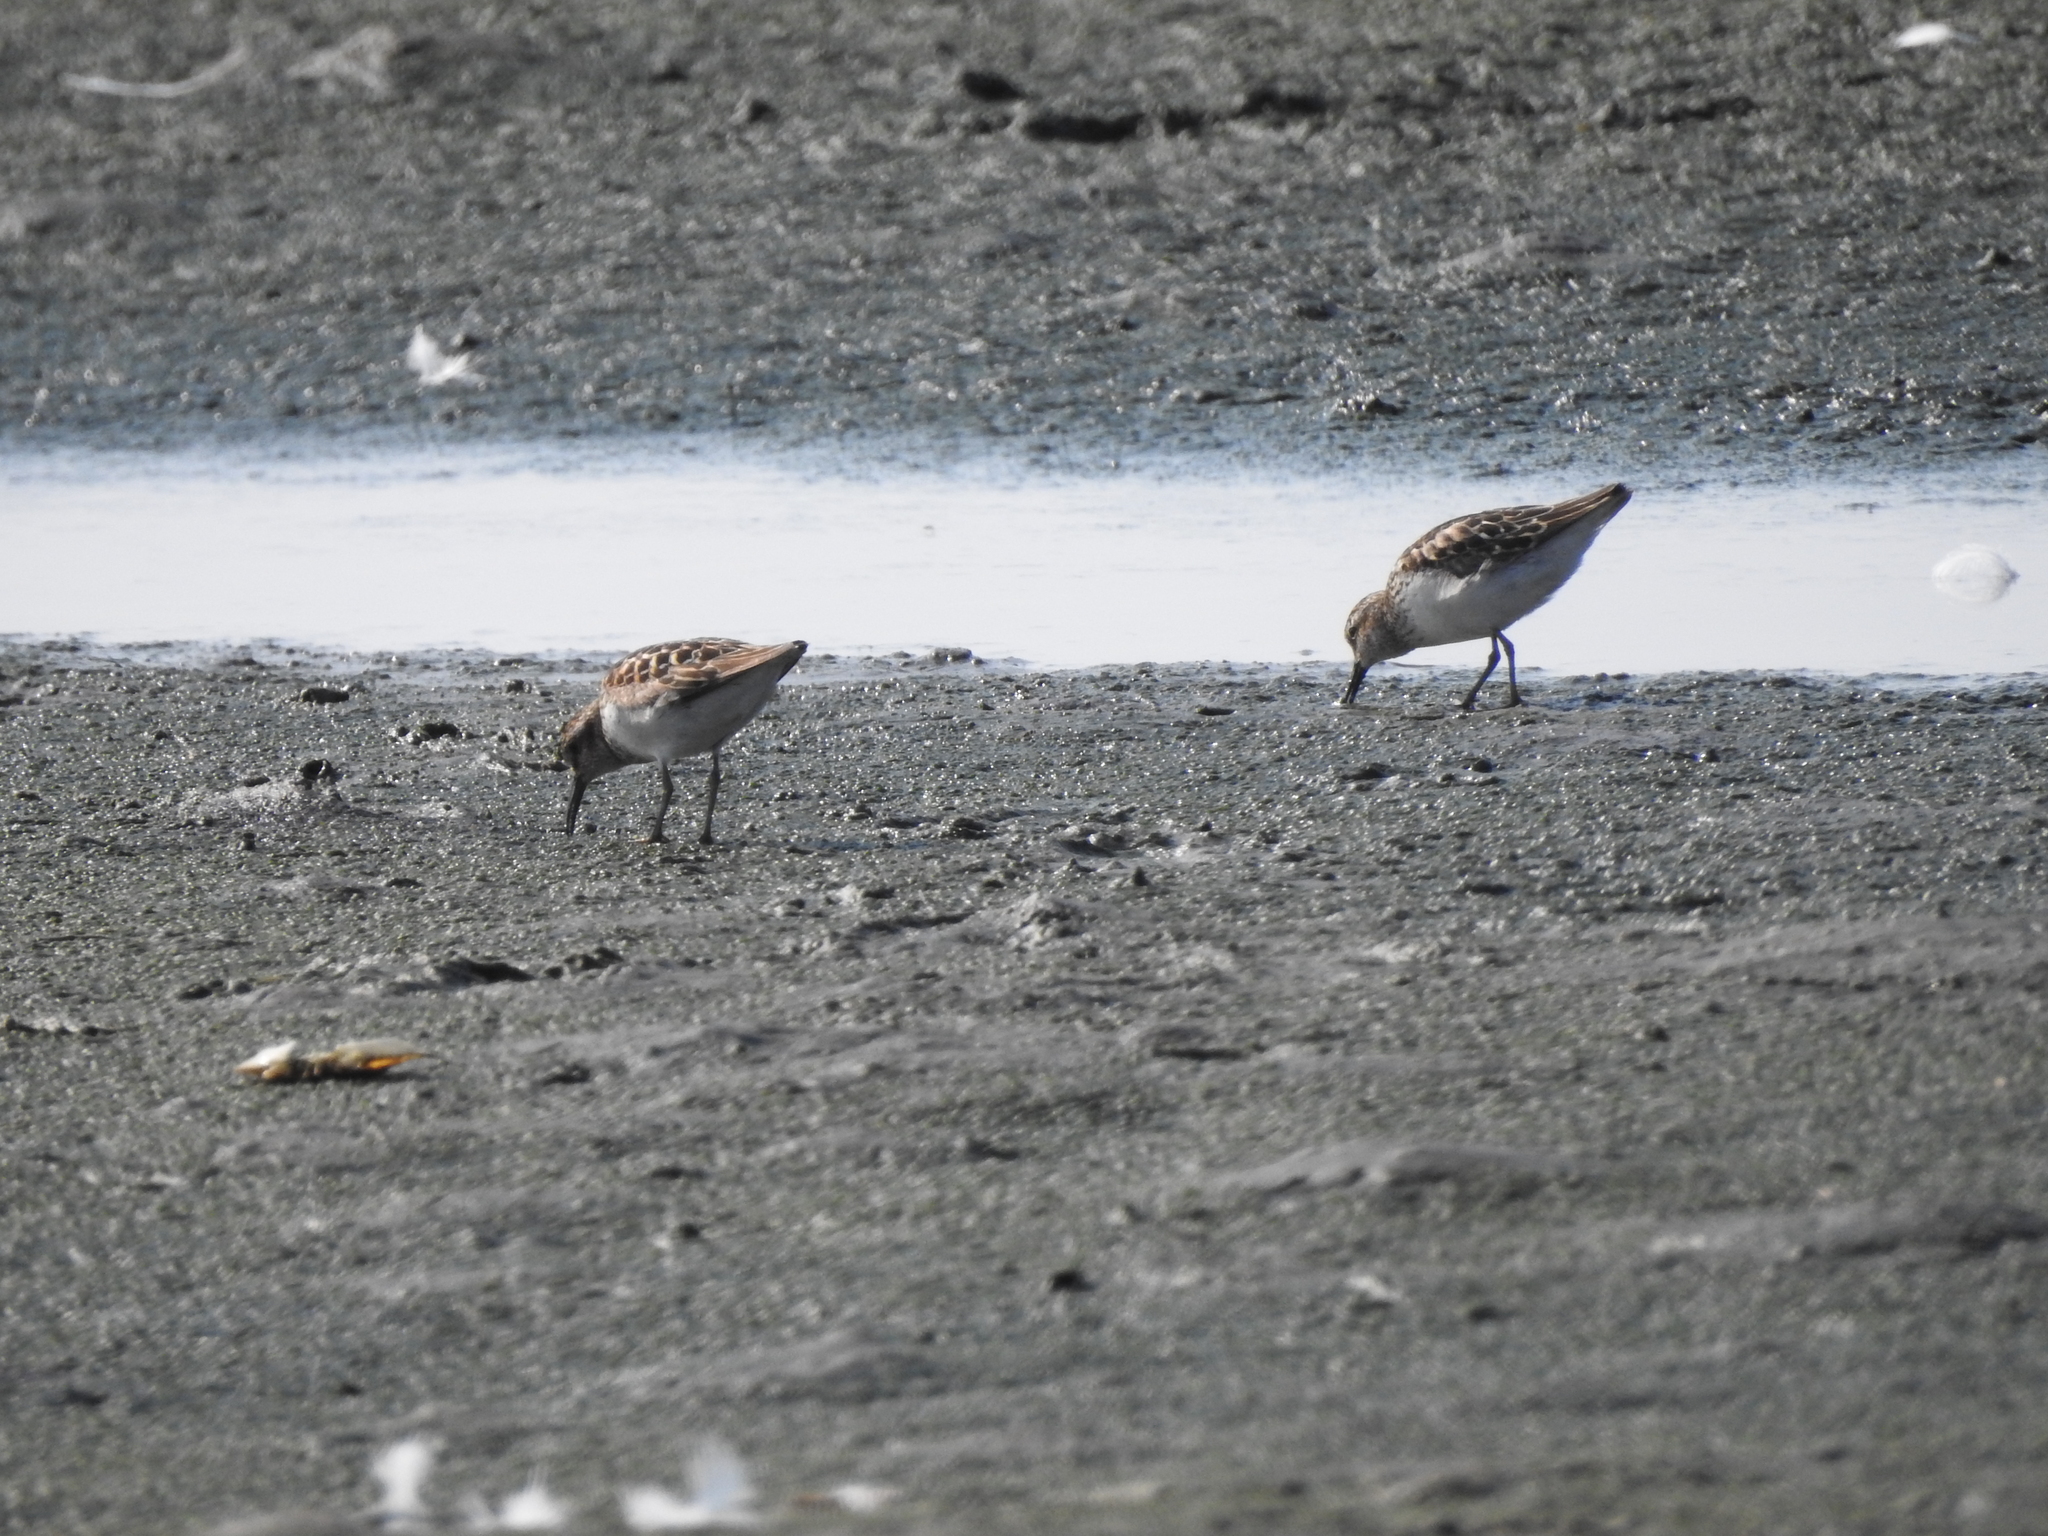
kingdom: Animalia
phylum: Chordata
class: Aves
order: Charadriiformes
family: Scolopacidae
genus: Calidris
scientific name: Calidris minutilla
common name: Least sandpiper
